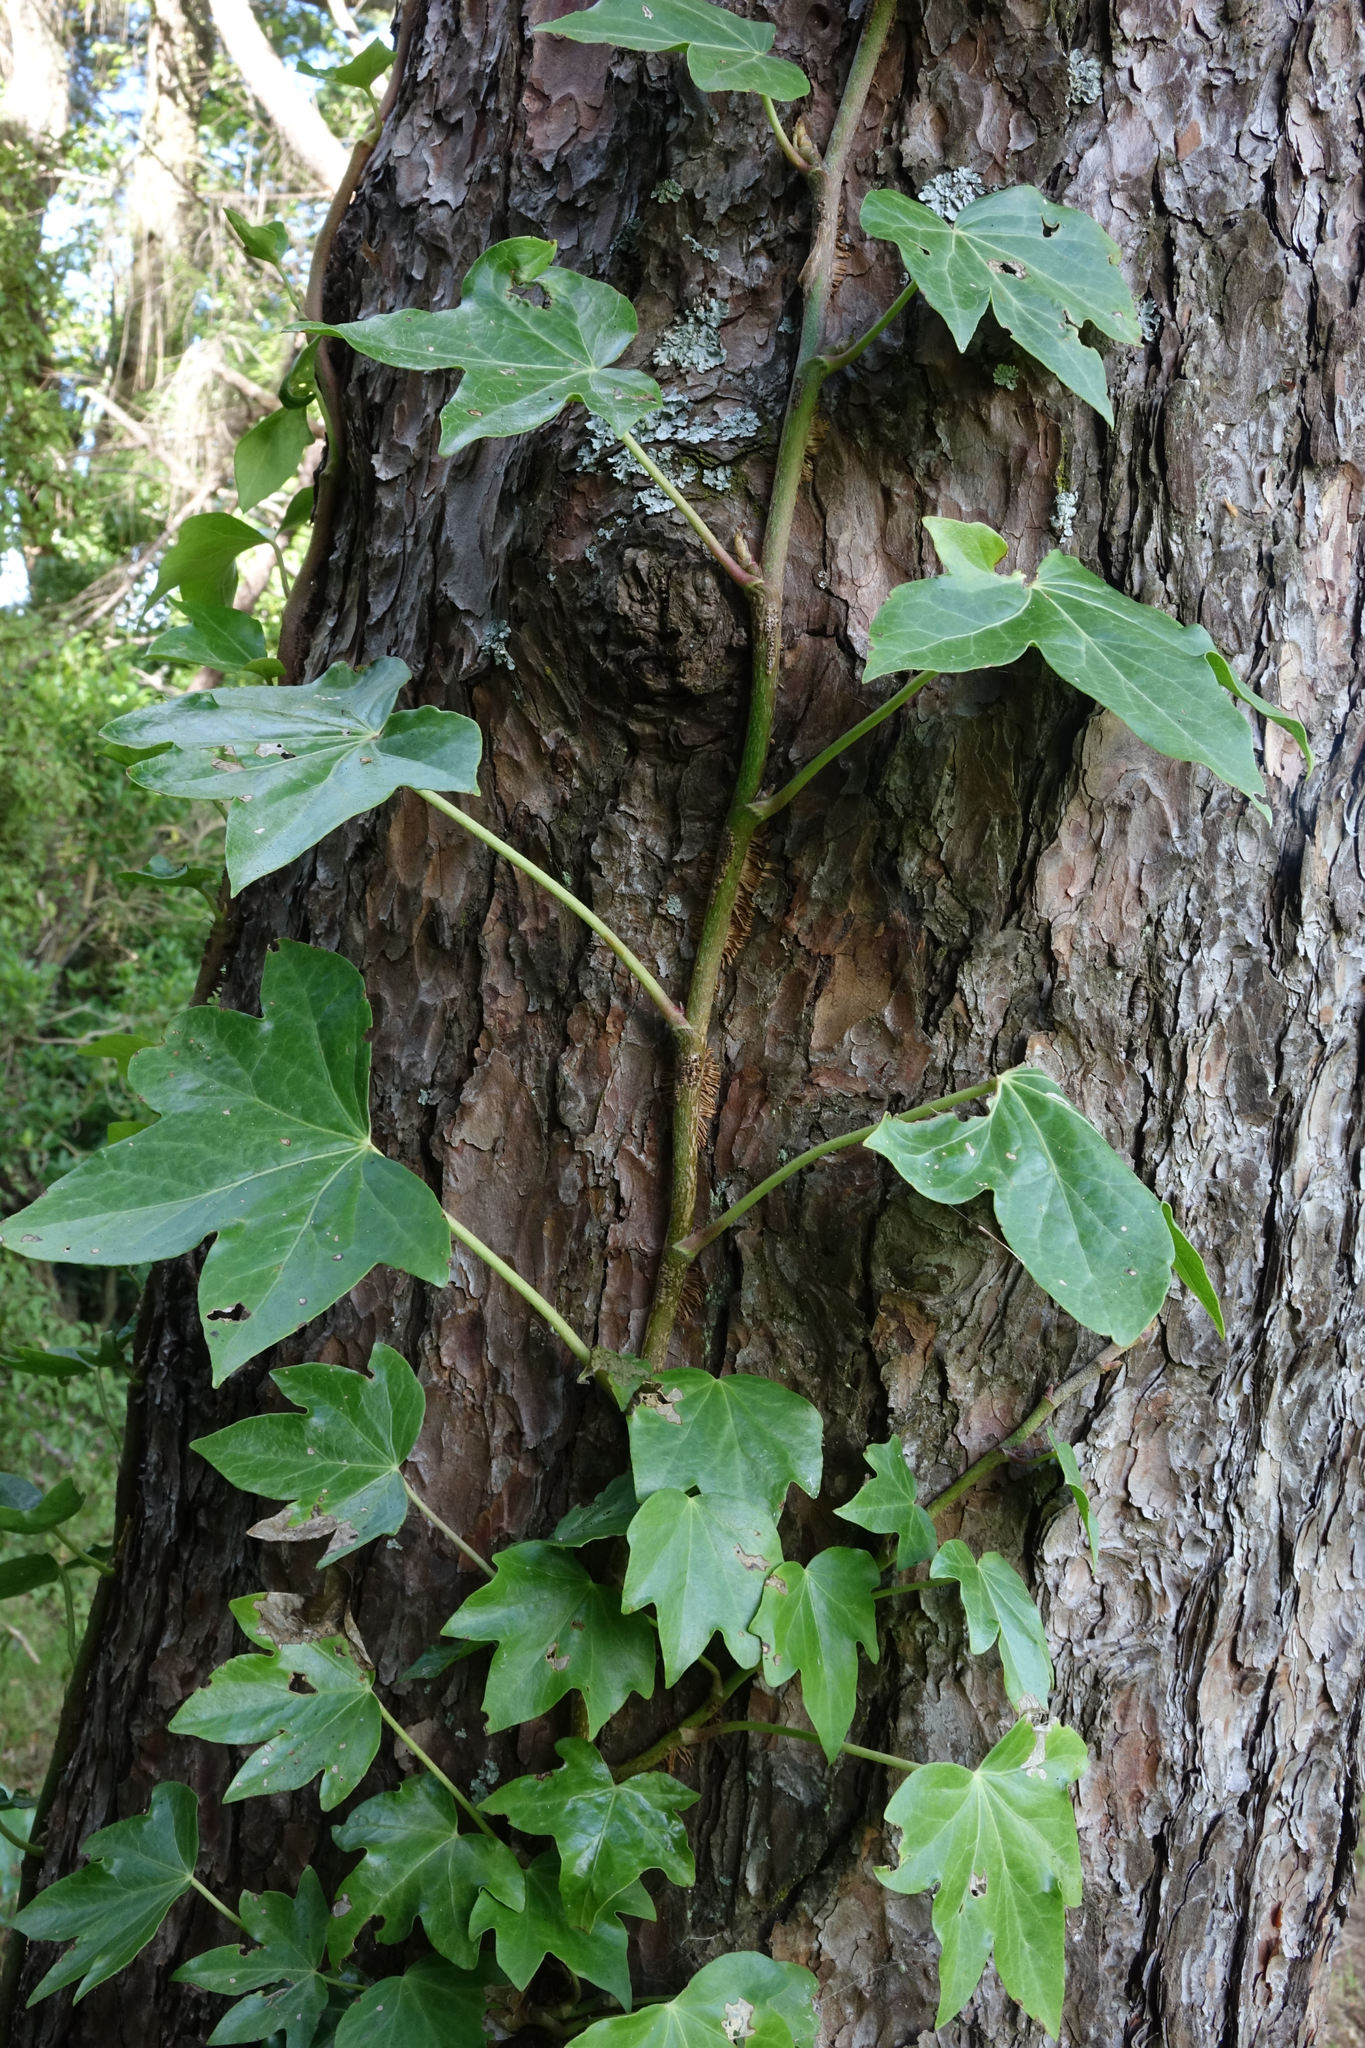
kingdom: Plantae
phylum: Tracheophyta
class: Magnoliopsida
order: Apiales
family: Araliaceae
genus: Hedera
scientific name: Hedera helix
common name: Ivy
